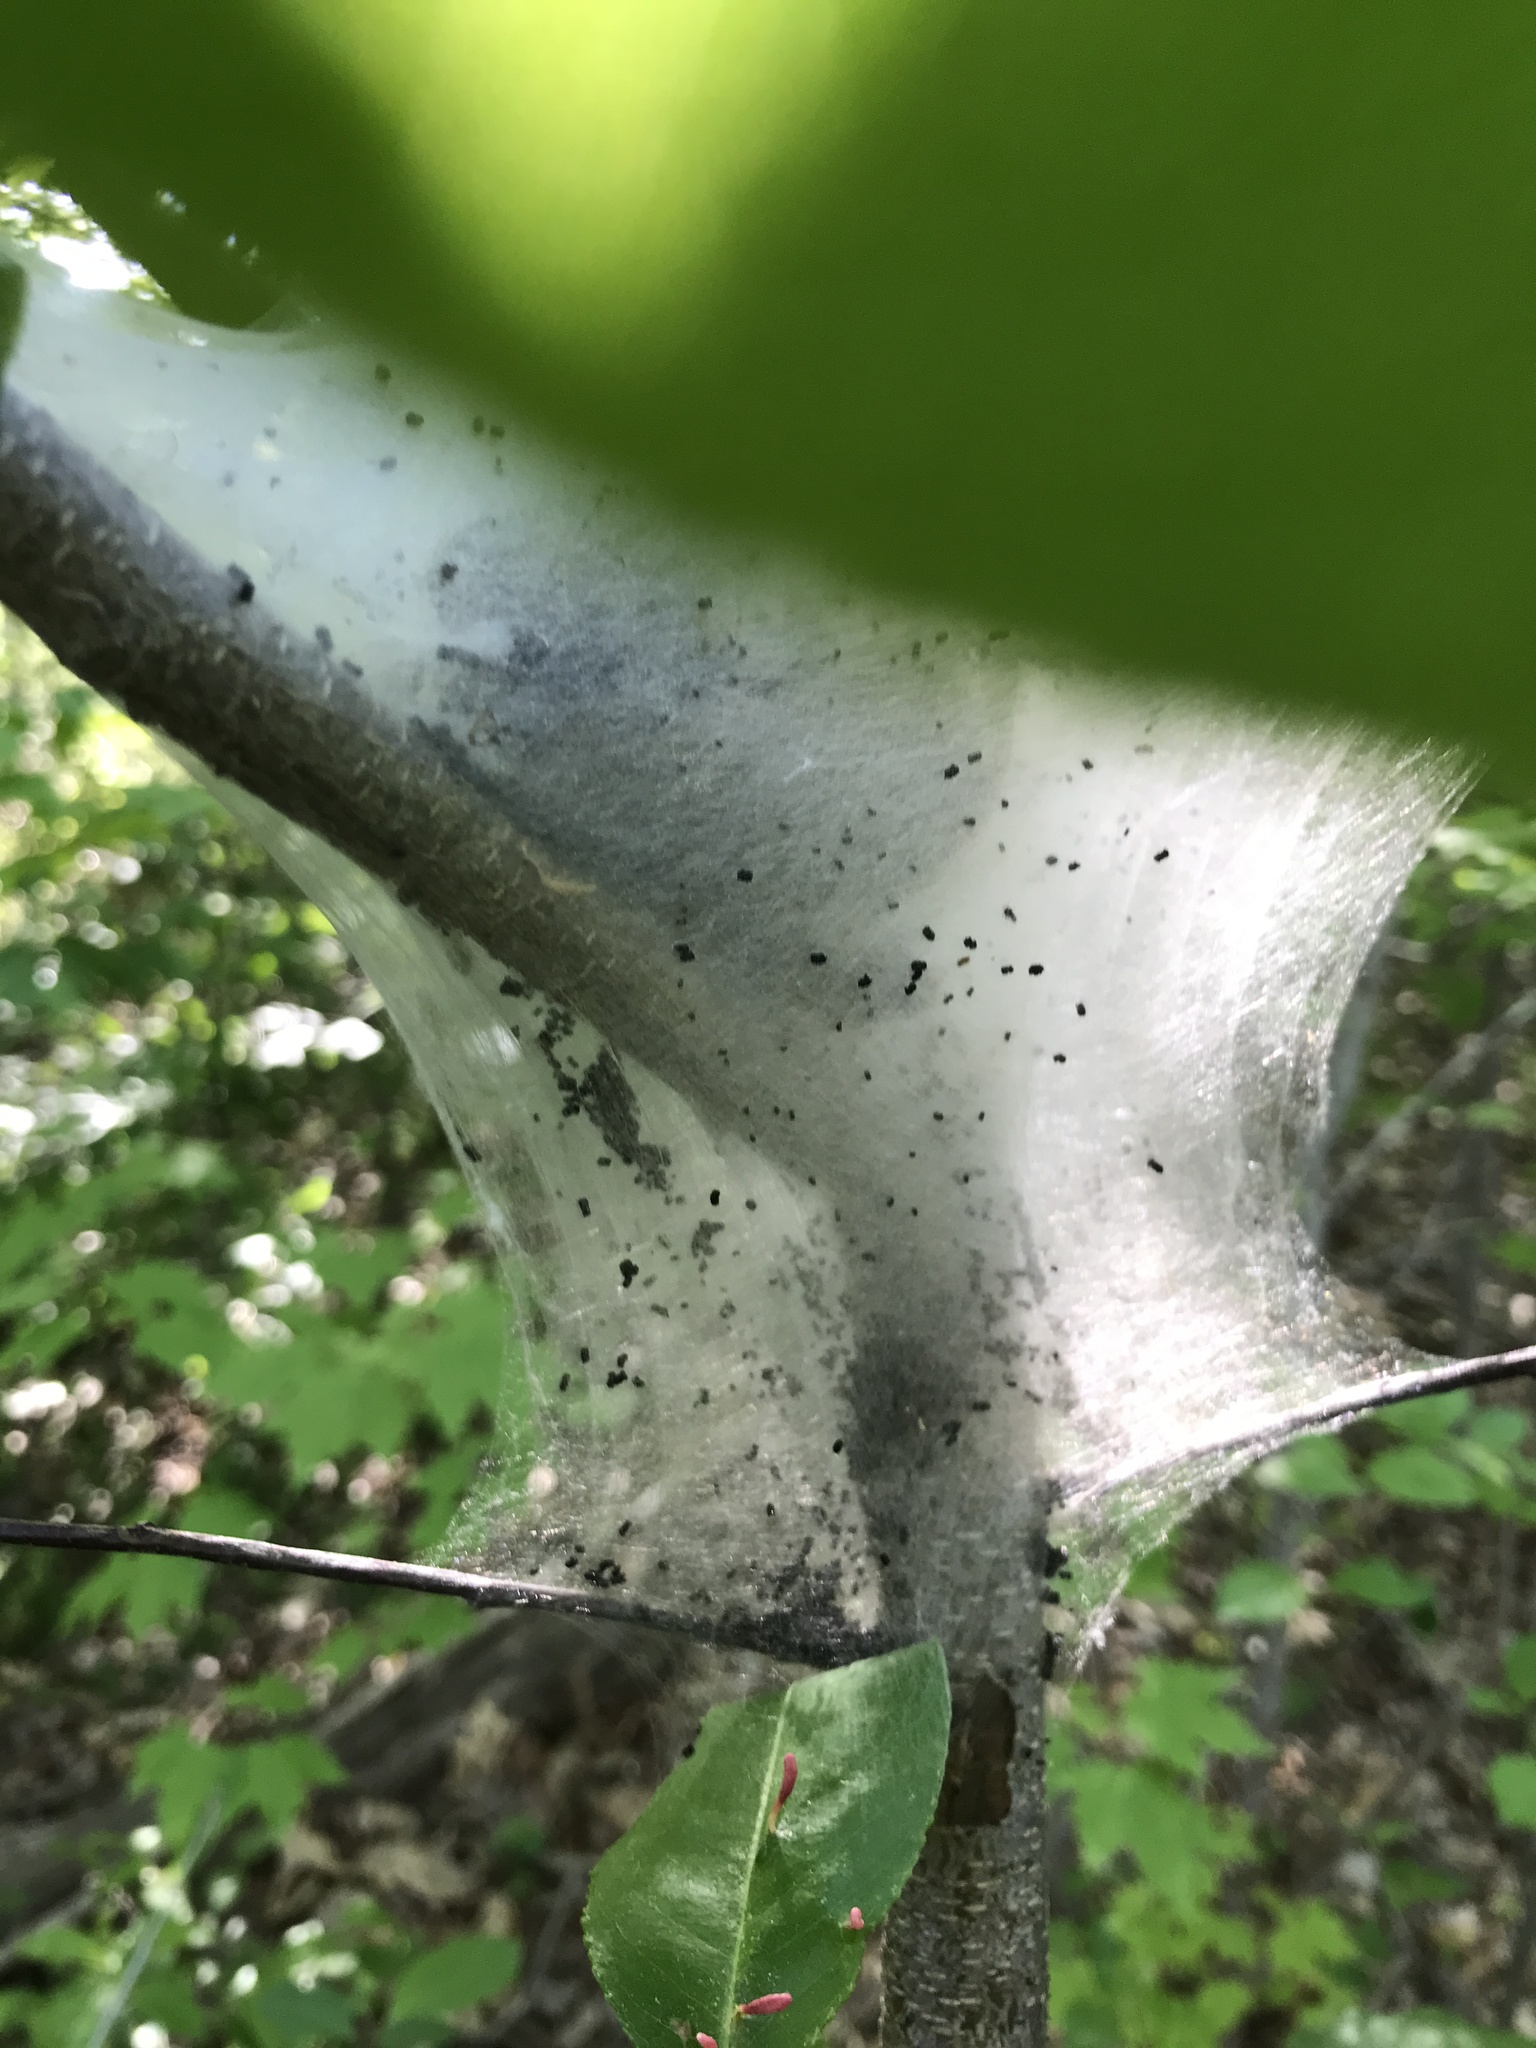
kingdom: Animalia
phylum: Arthropoda
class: Insecta
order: Lepidoptera
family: Lasiocampidae
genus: Malacosoma
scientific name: Malacosoma americana
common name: Eastern tent caterpillar moth
